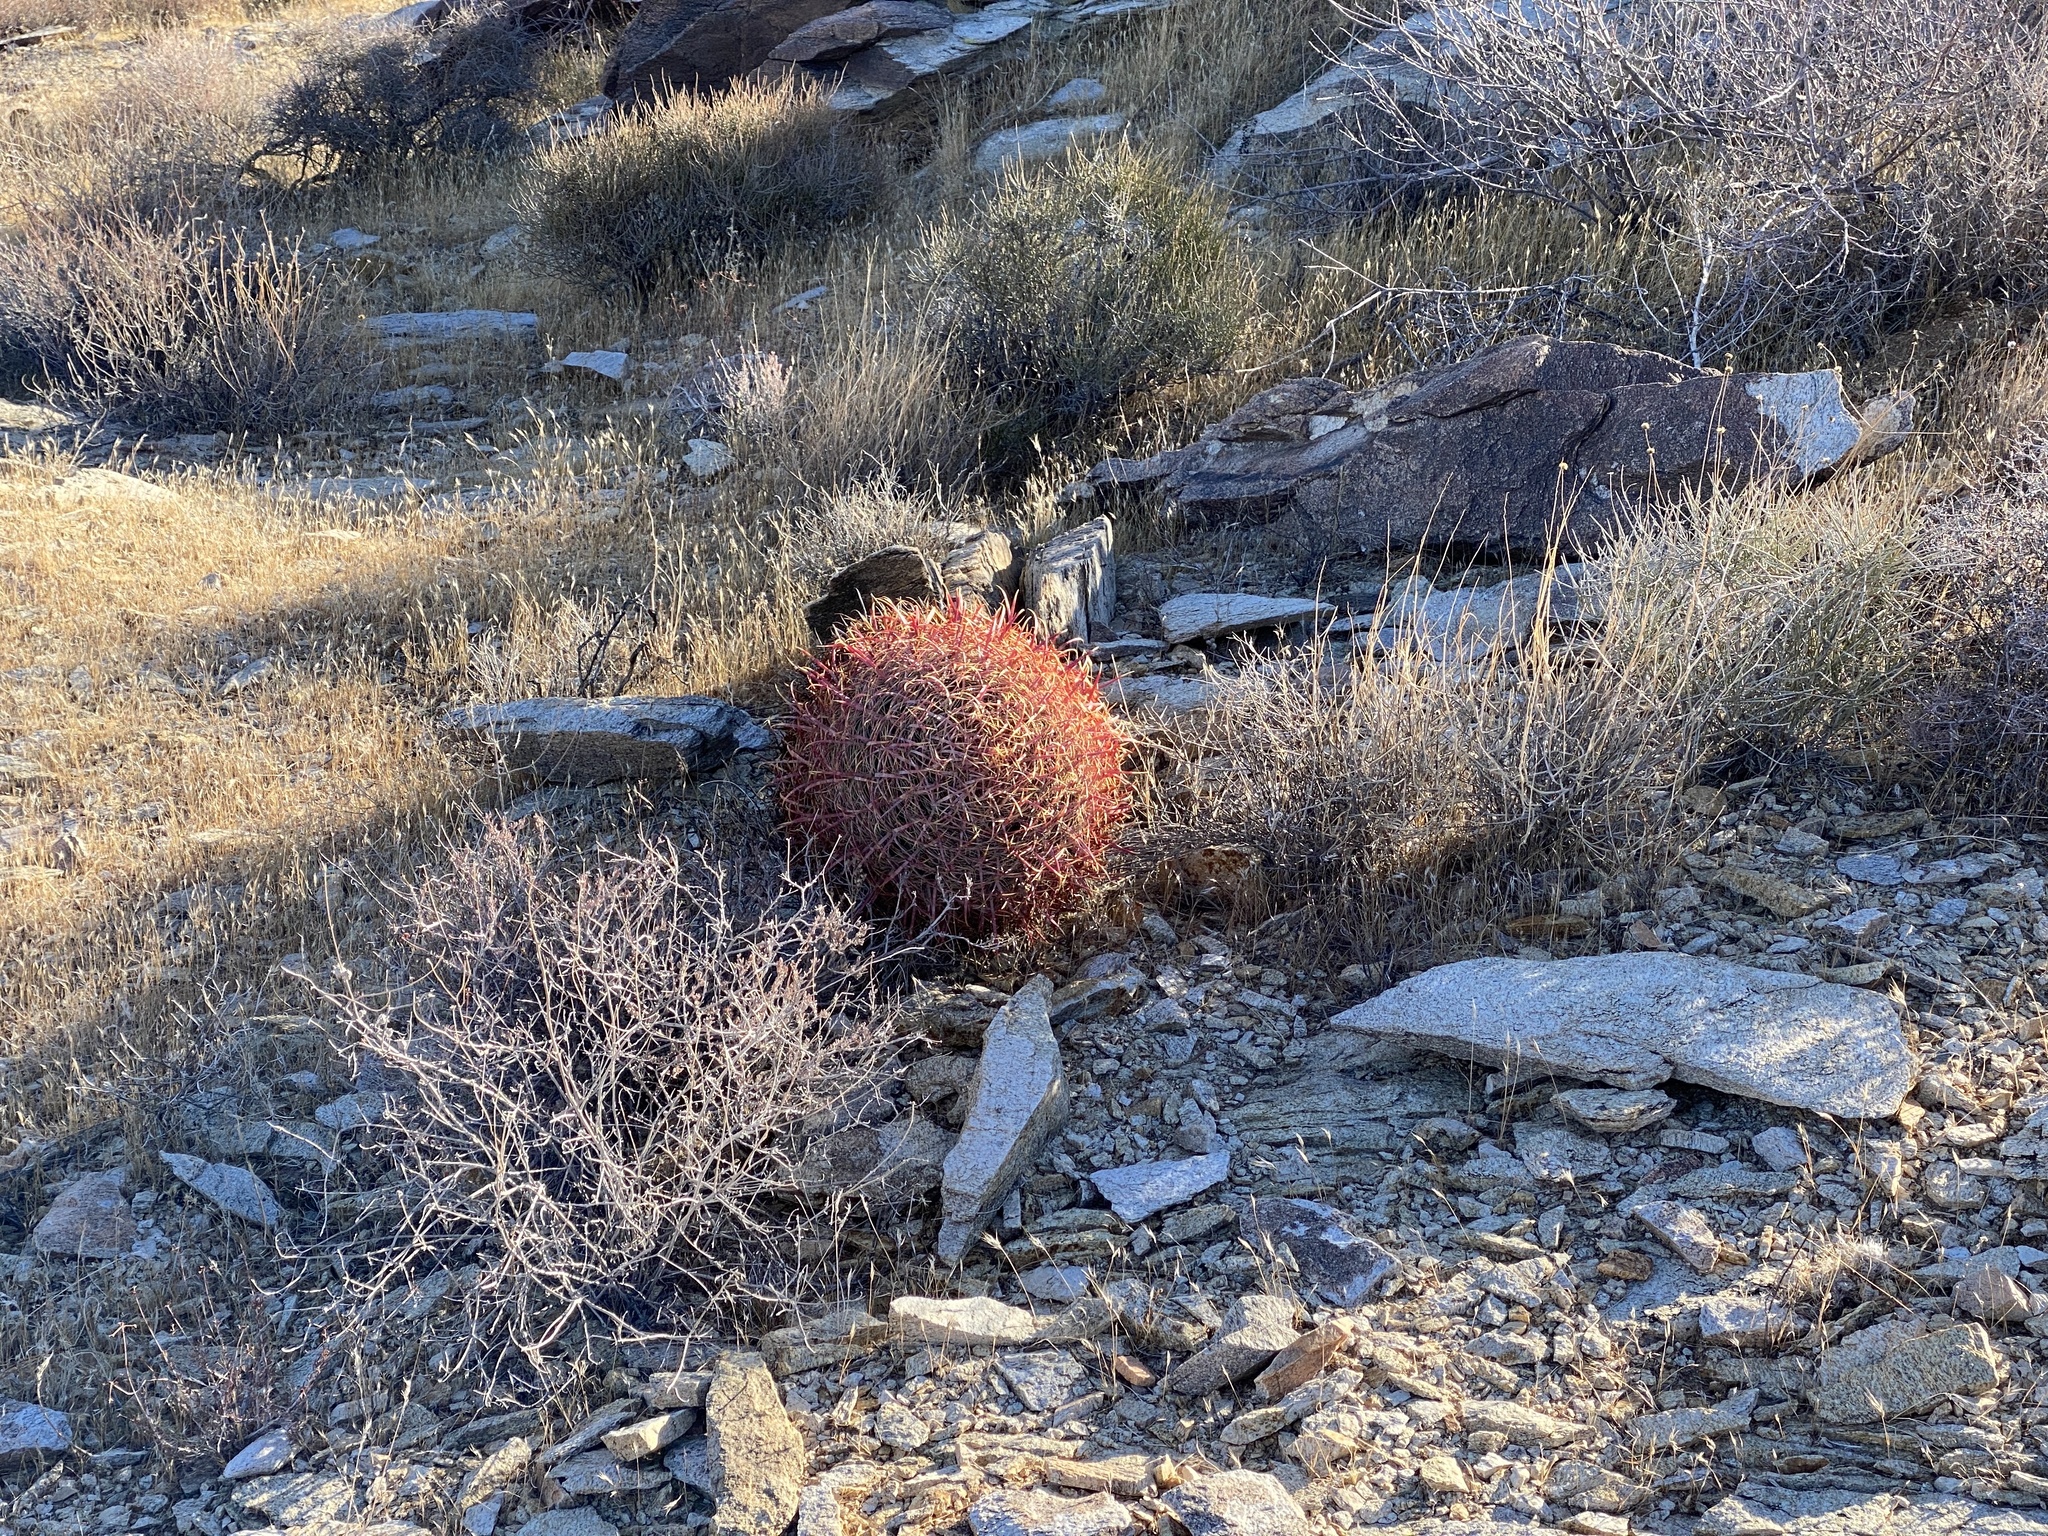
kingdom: Plantae
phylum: Tracheophyta
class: Magnoliopsida
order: Caryophyllales
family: Cactaceae
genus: Ferocactus
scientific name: Ferocactus cylindraceus
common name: California barrel cactus
